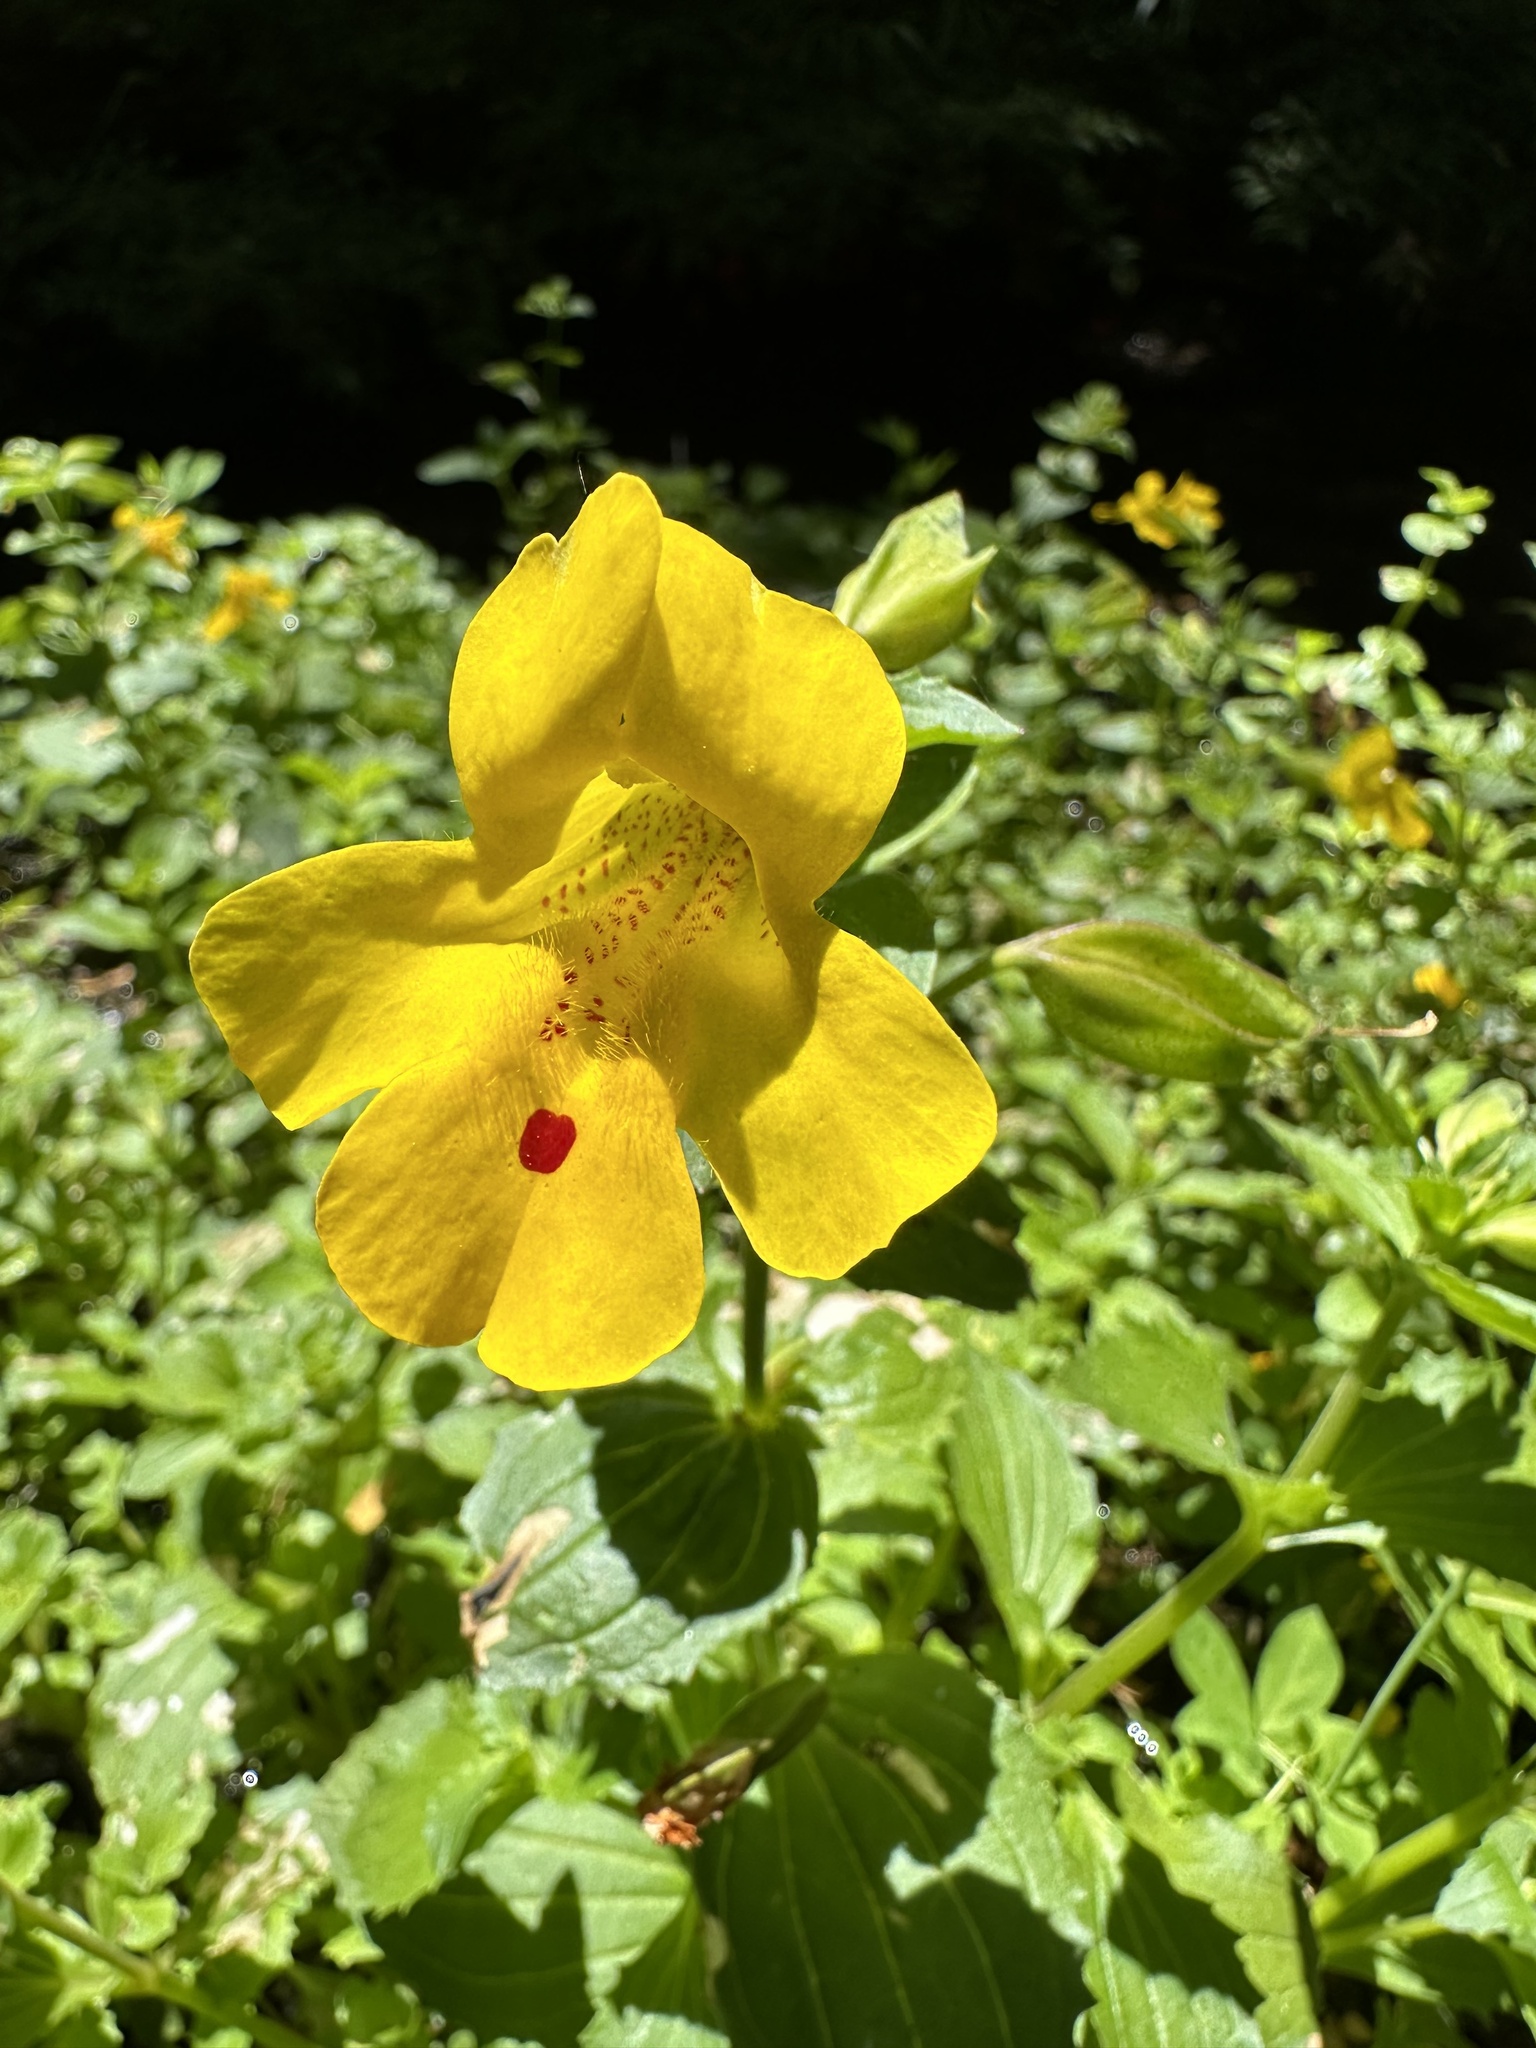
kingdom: Plantae
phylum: Tracheophyta
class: Magnoliopsida
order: Lamiales
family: Phrymaceae
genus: Erythranthe
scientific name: Erythranthe lutea
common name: Yellow monkey-flower
